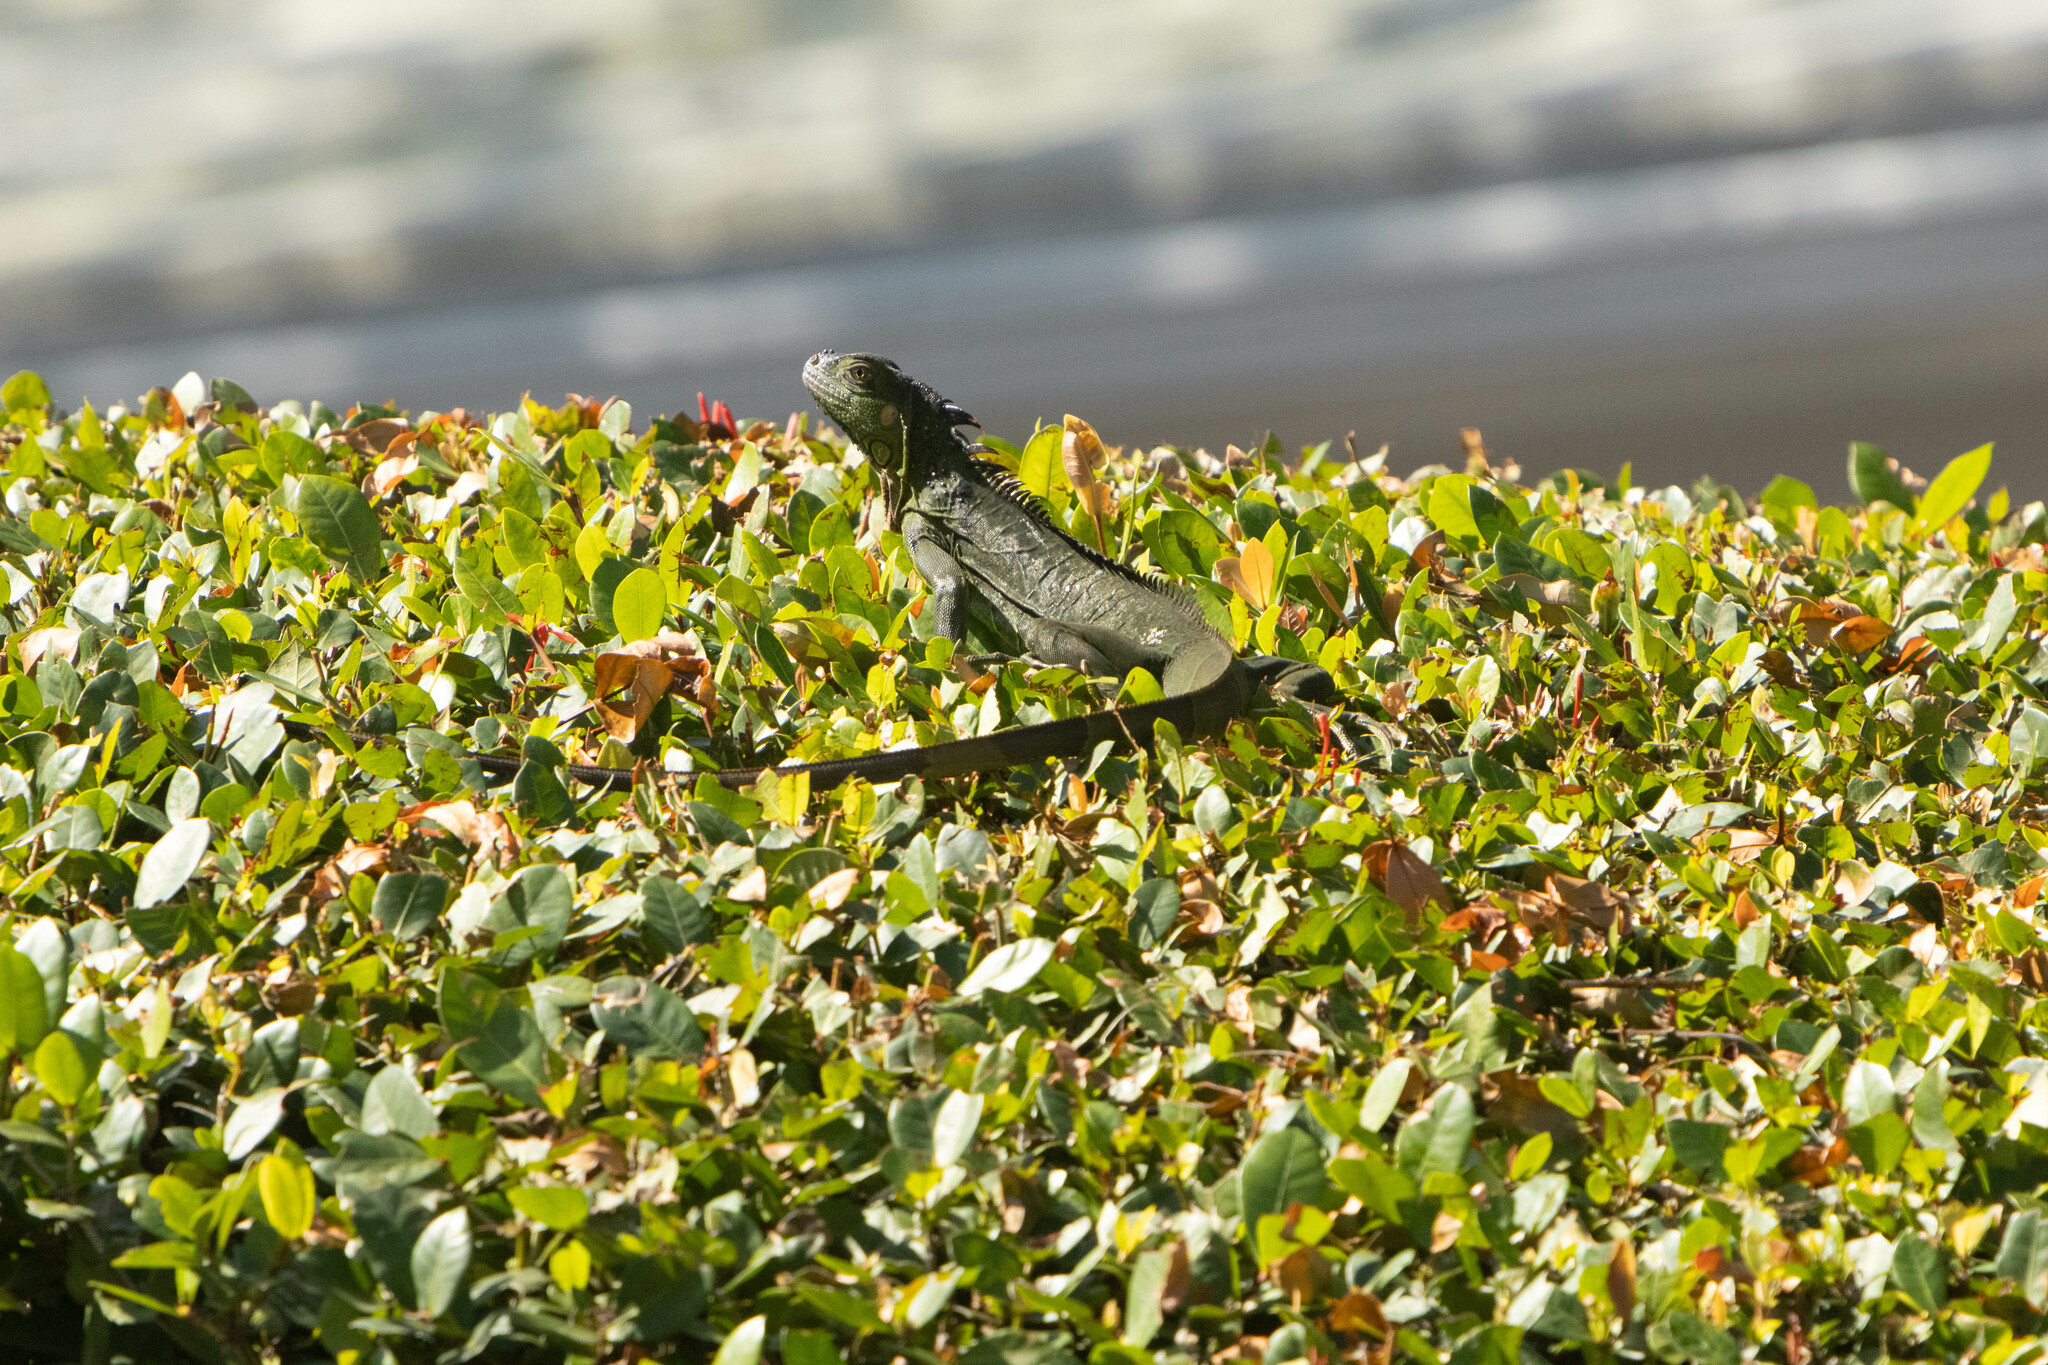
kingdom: Animalia
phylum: Chordata
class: Squamata
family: Iguanidae
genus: Iguana
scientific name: Iguana iguana
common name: Green iguana
